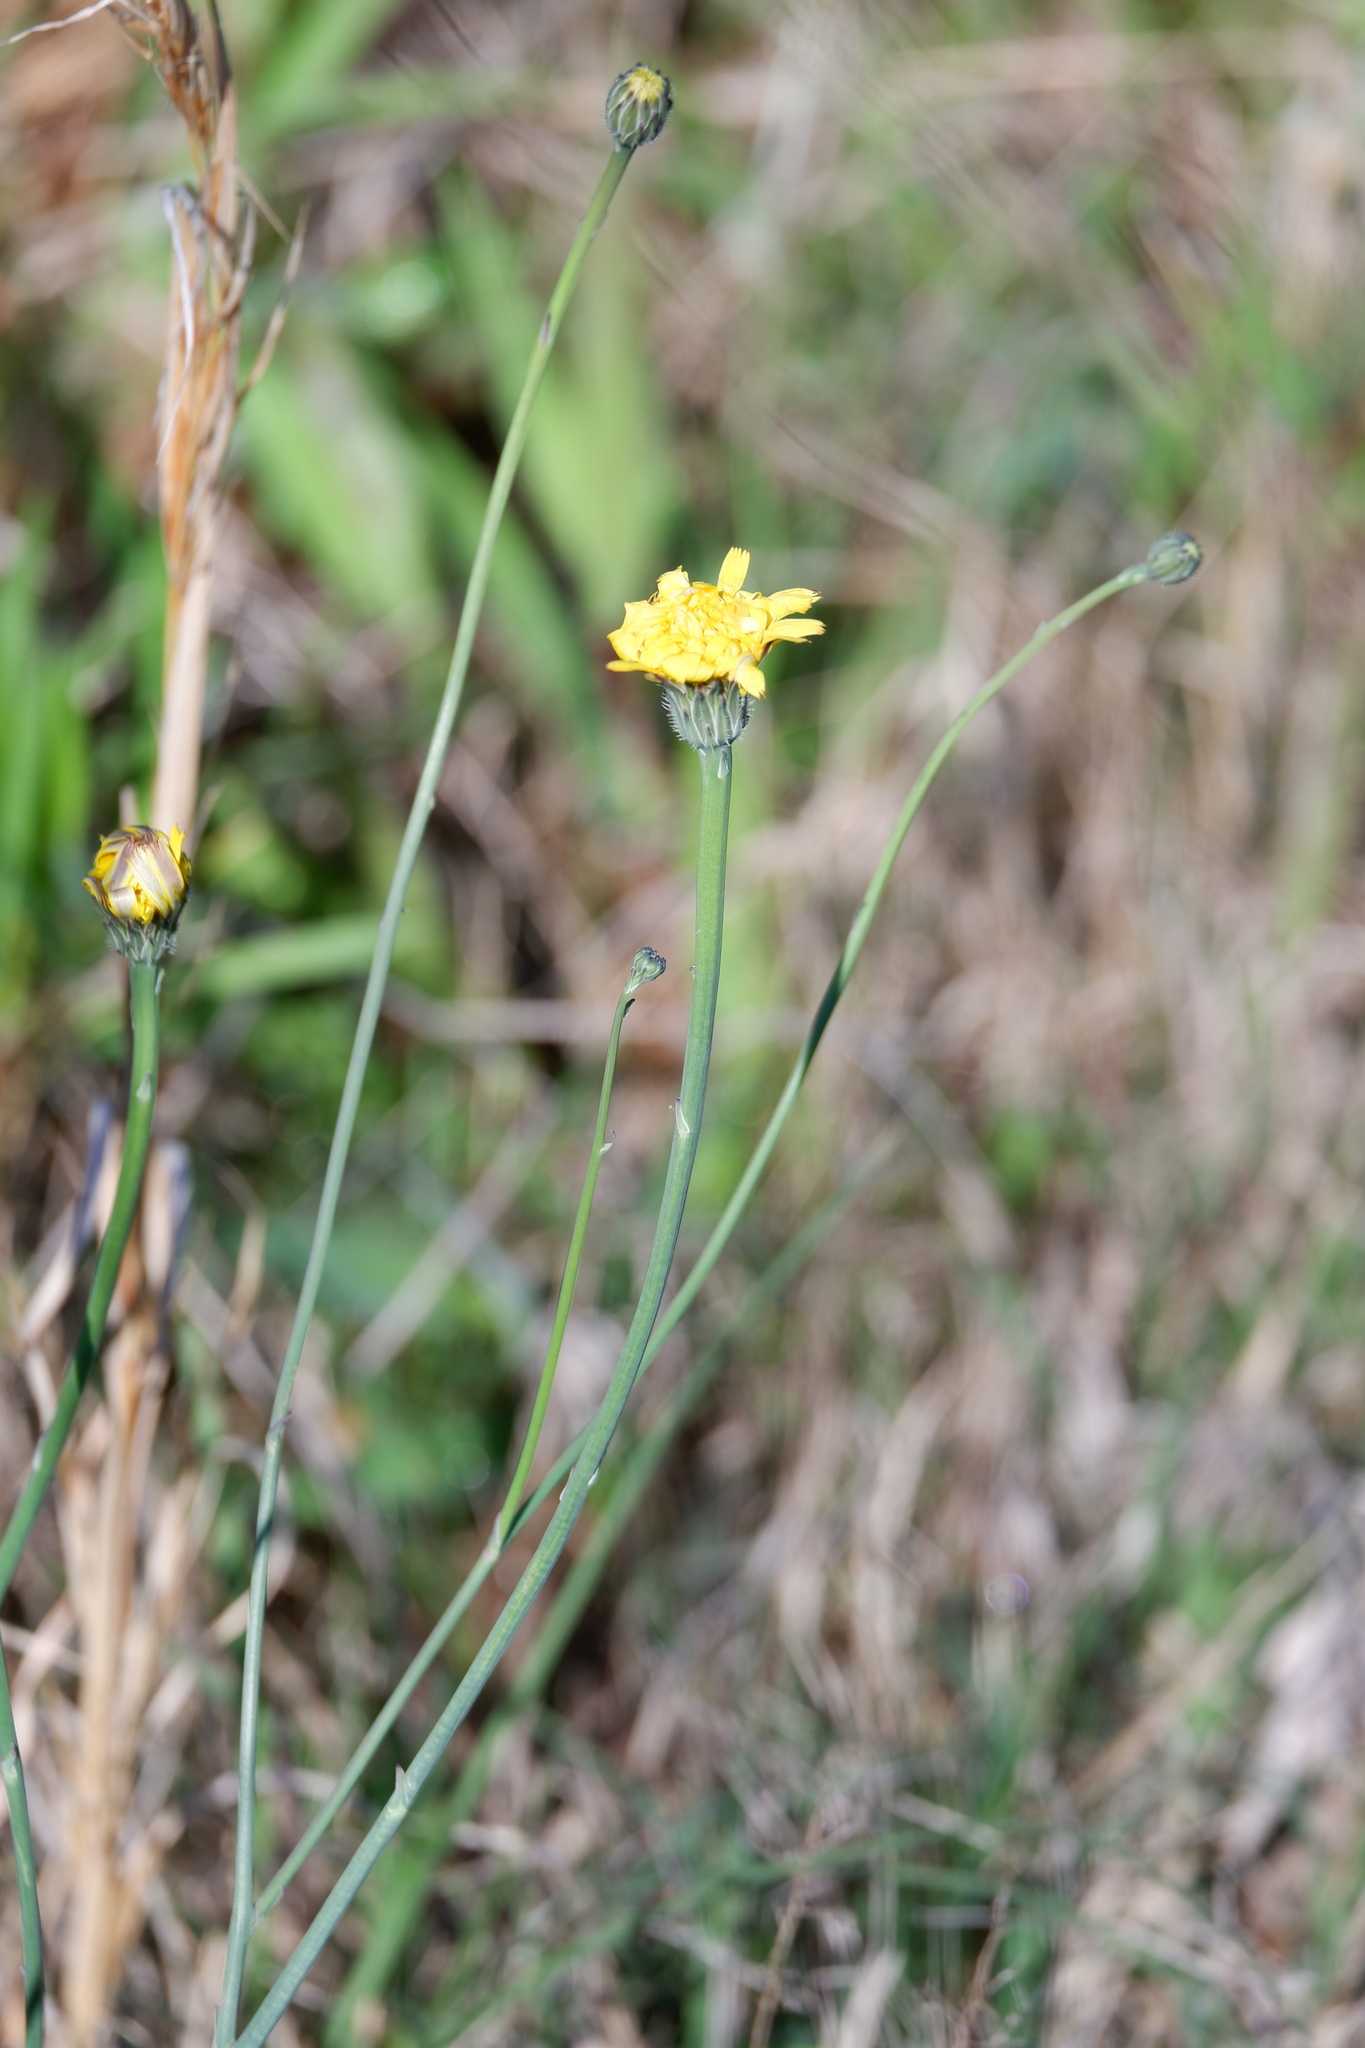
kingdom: Plantae
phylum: Tracheophyta
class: Magnoliopsida
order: Asterales
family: Asteraceae
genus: Hypochaeris
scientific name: Hypochaeris radicata
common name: Flatweed
